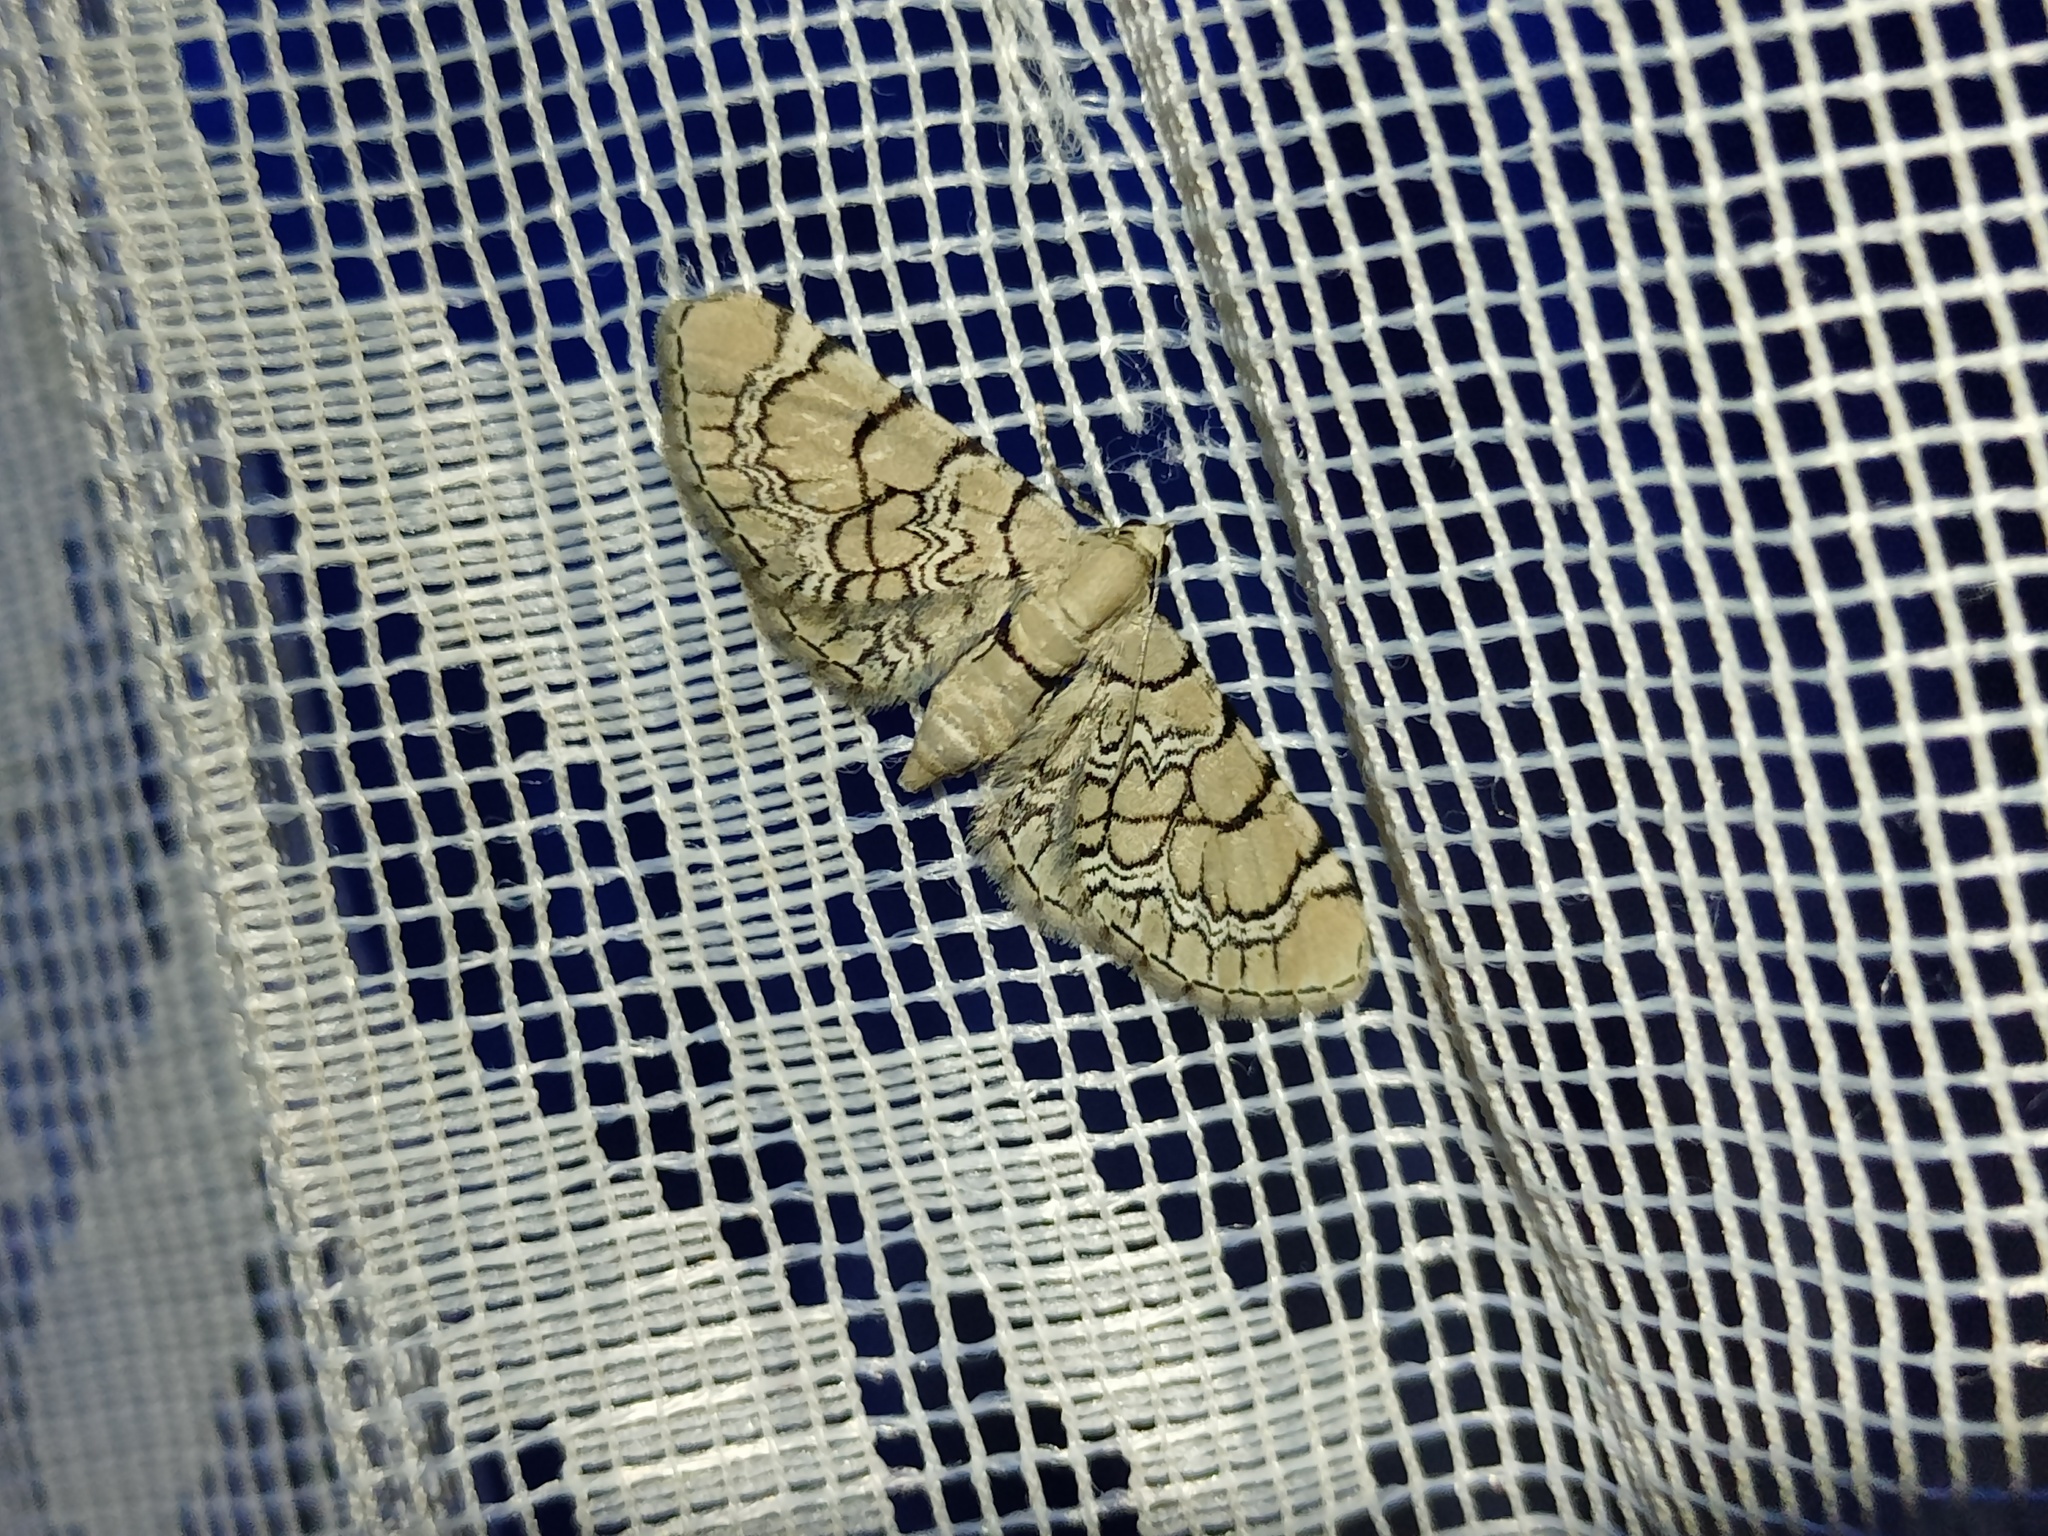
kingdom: Animalia
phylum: Arthropoda
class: Insecta
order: Lepidoptera
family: Geometridae
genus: Eupithecia
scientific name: Eupithecia venosata
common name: Netted pug
